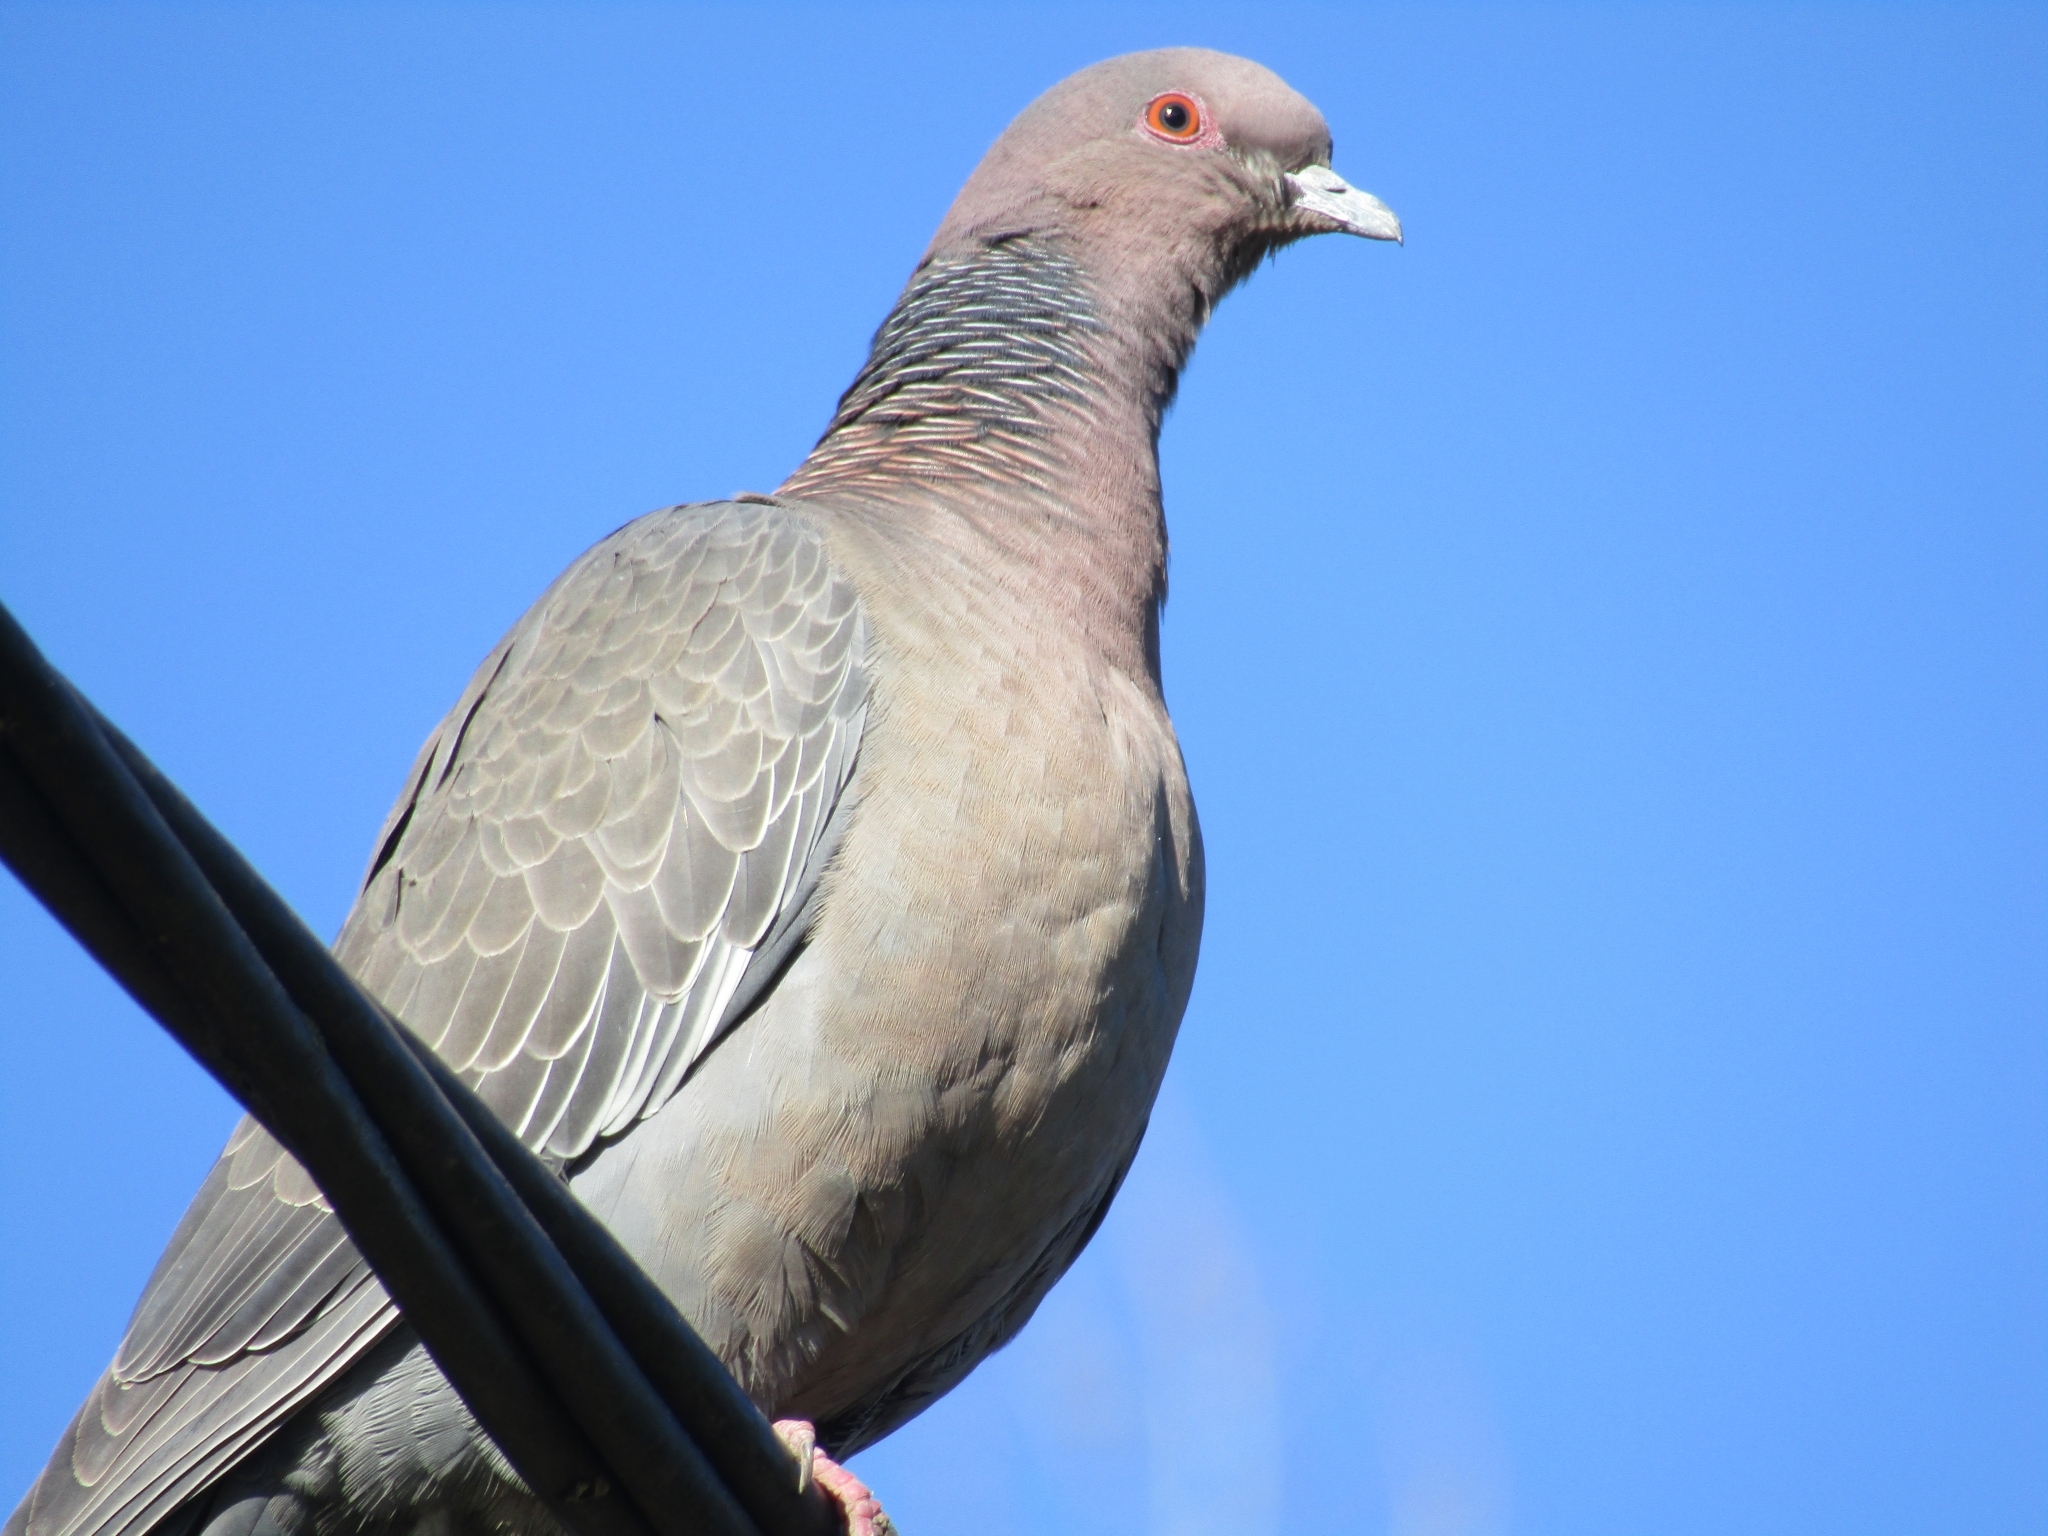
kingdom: Animalia
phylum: Chordata
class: Aves
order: Columbiformes
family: Columbidae
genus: Patagioenas
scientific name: Patagioenas picazuro
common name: Picazuro pigeon
